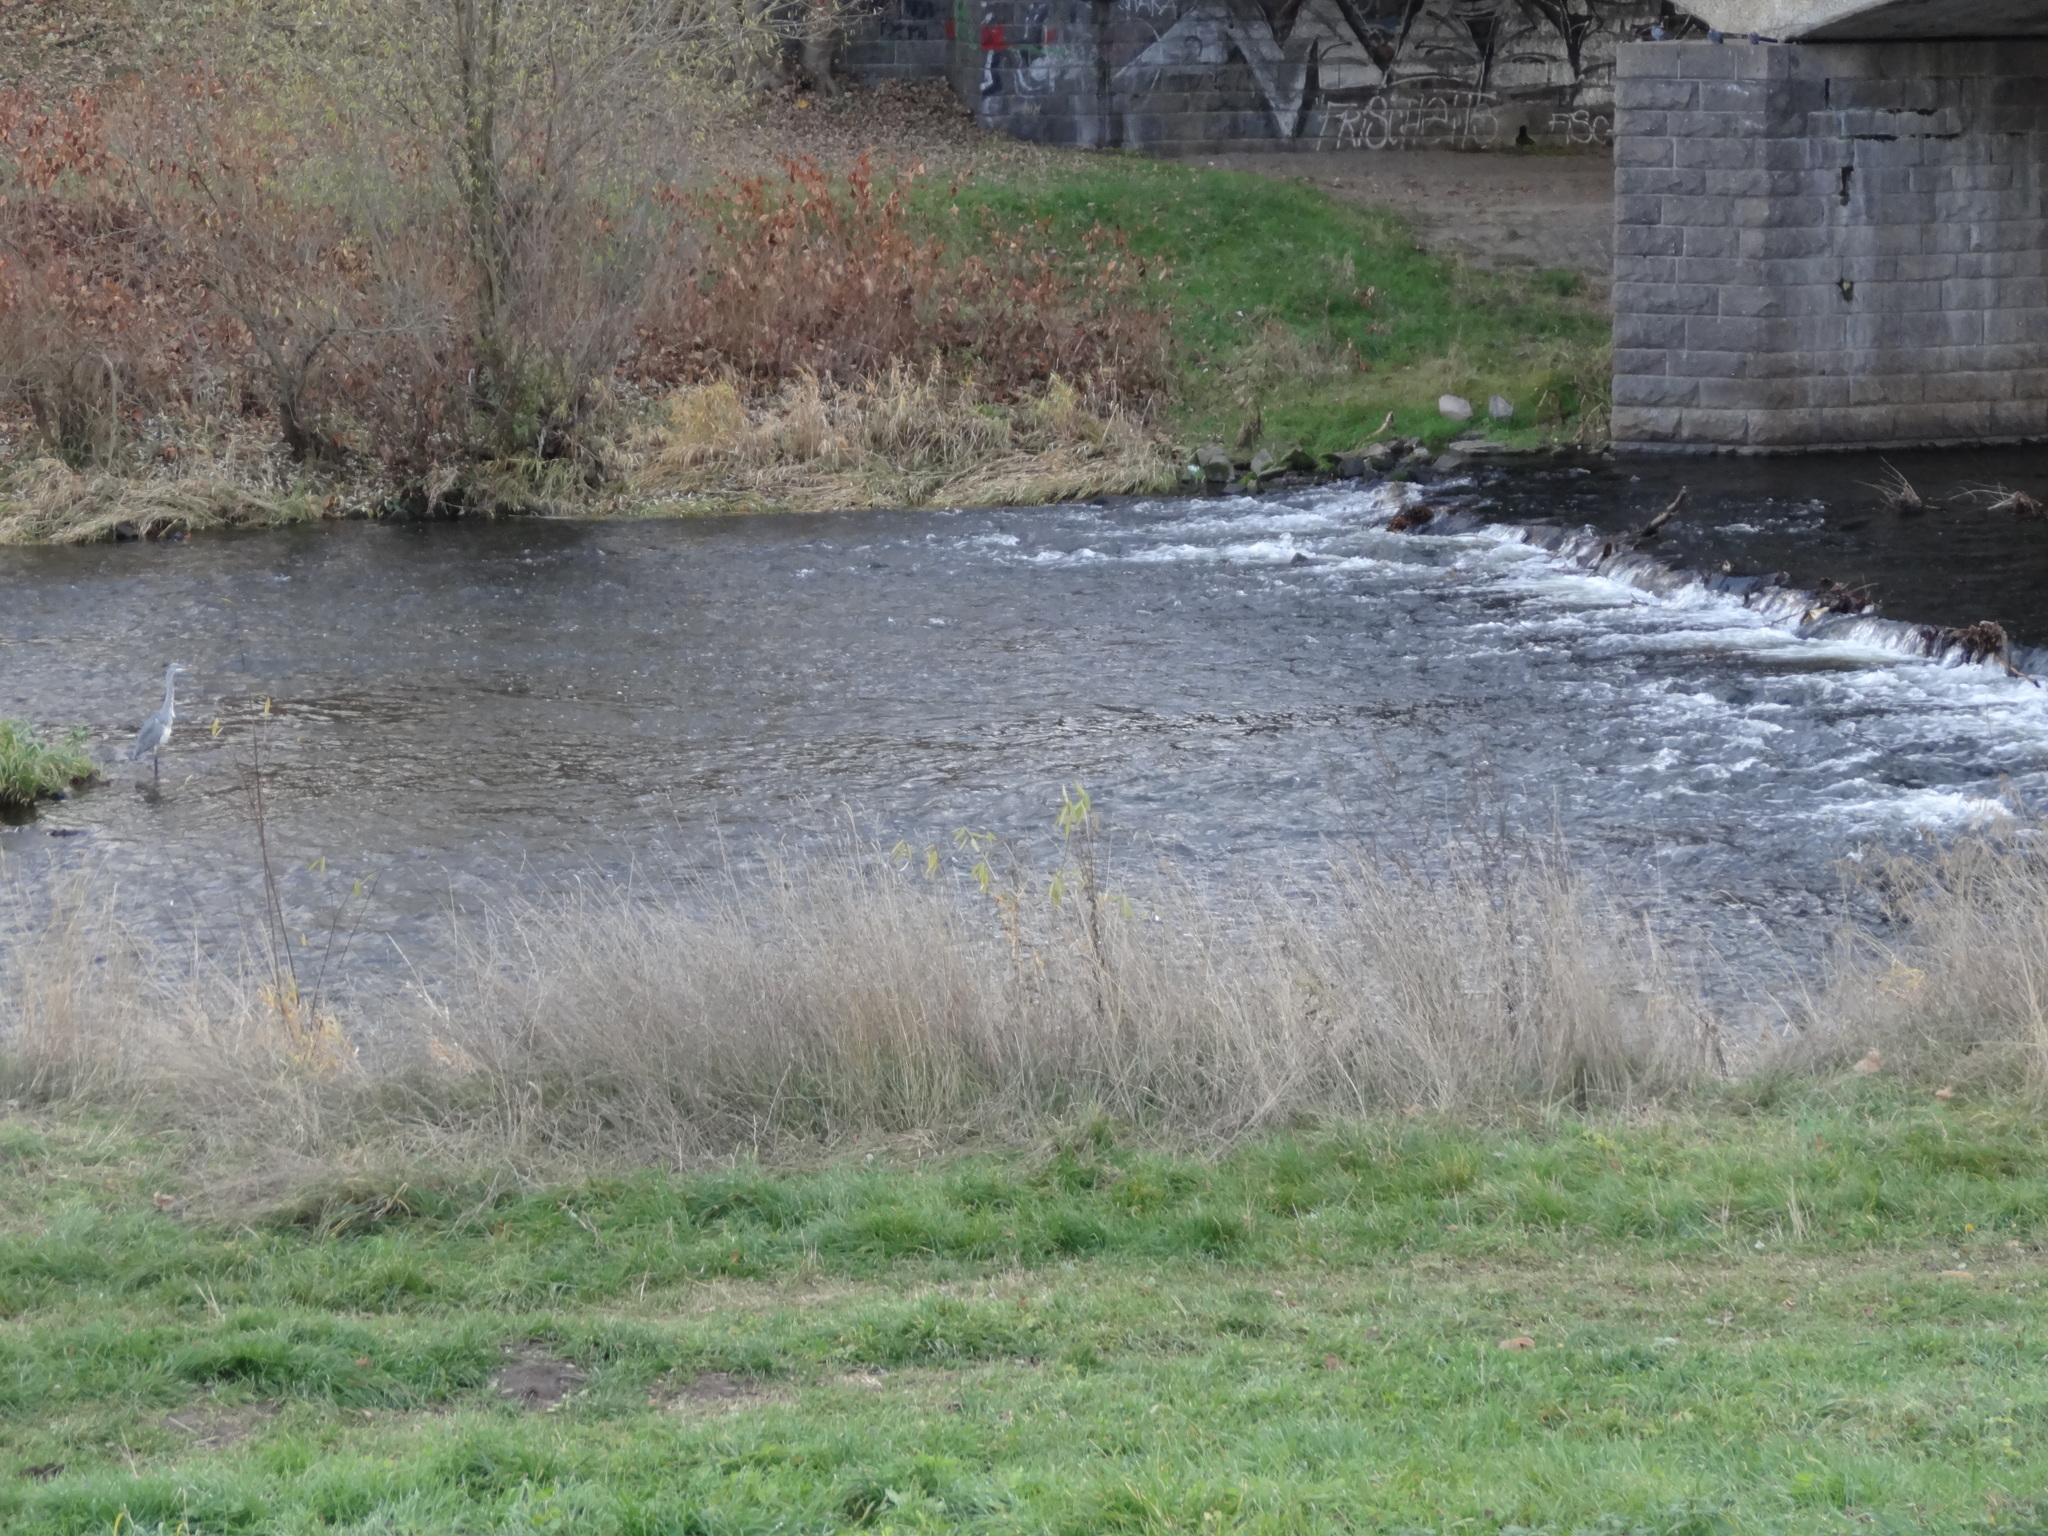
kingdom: Animalia
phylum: Chordata
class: Aves
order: Pelecaniformes
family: Ardeidae
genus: Ardea
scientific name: Ardea cinerea
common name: Grey heron
